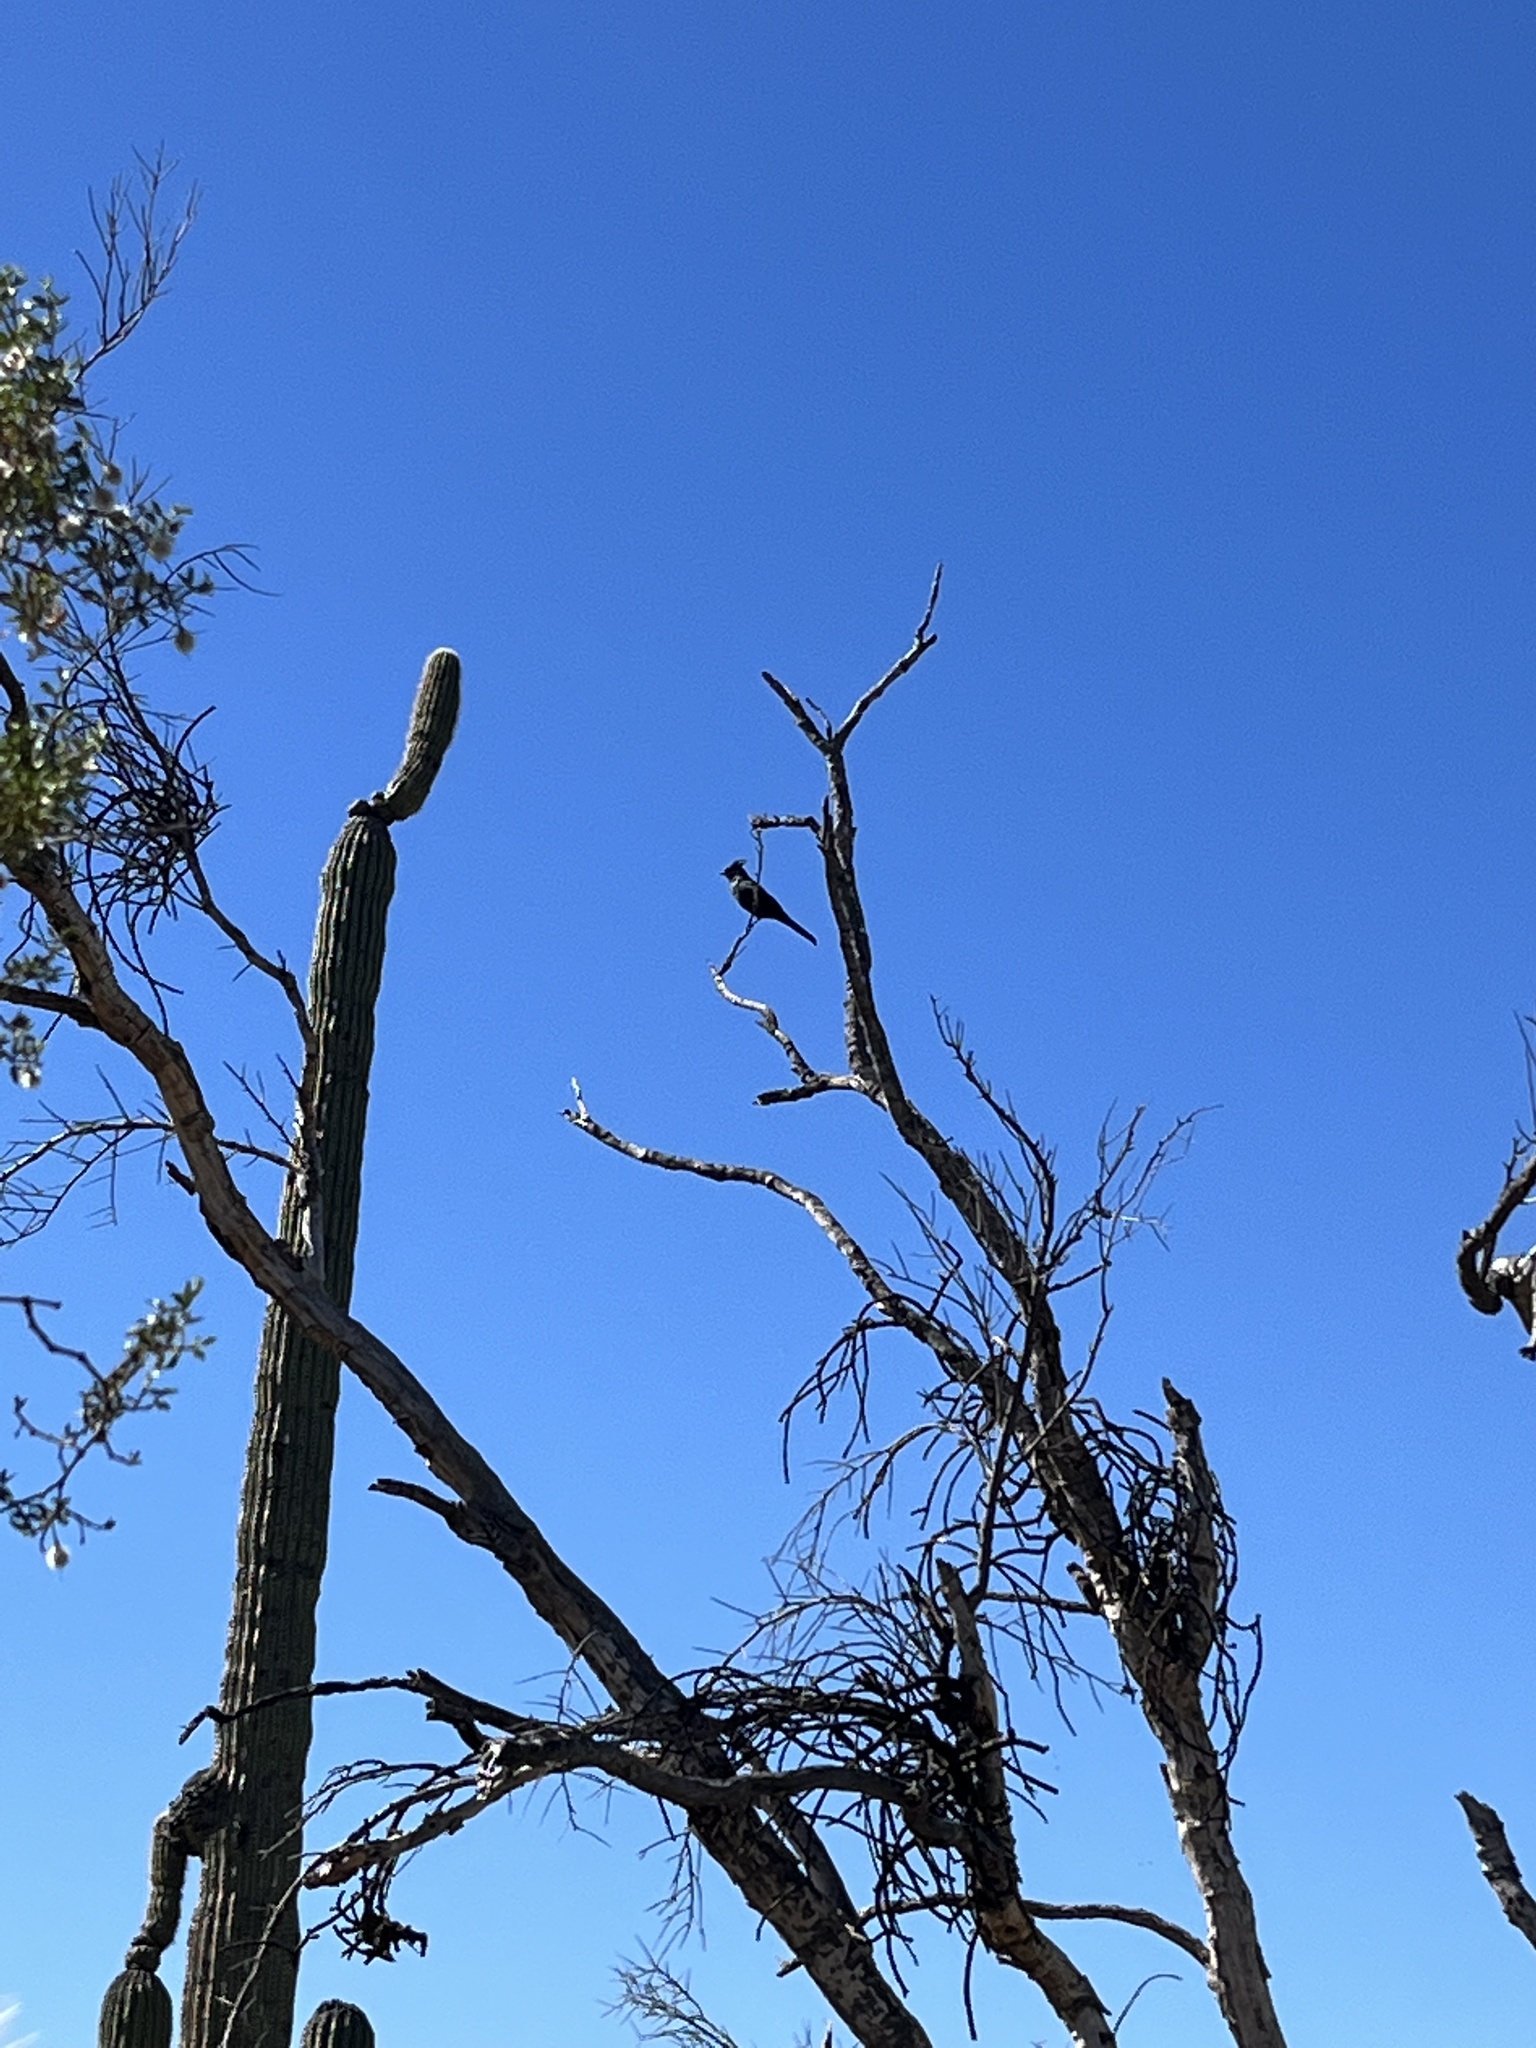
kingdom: Animalia
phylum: Chordata
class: Aves
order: Passeriformes
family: Ptilogonatidae
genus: Phainopepla
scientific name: Phainopepla nitens
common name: Phainopepla
